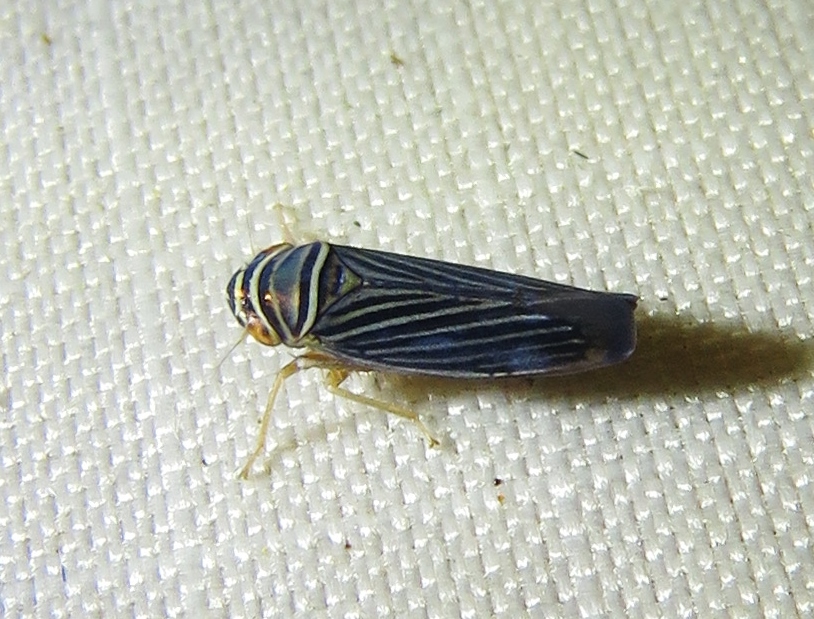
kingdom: Animalia
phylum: Arthropoda
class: Insecta
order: Hemiptera
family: Cicadellidae
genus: Tylozygus
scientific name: Tylozygus bifidus
